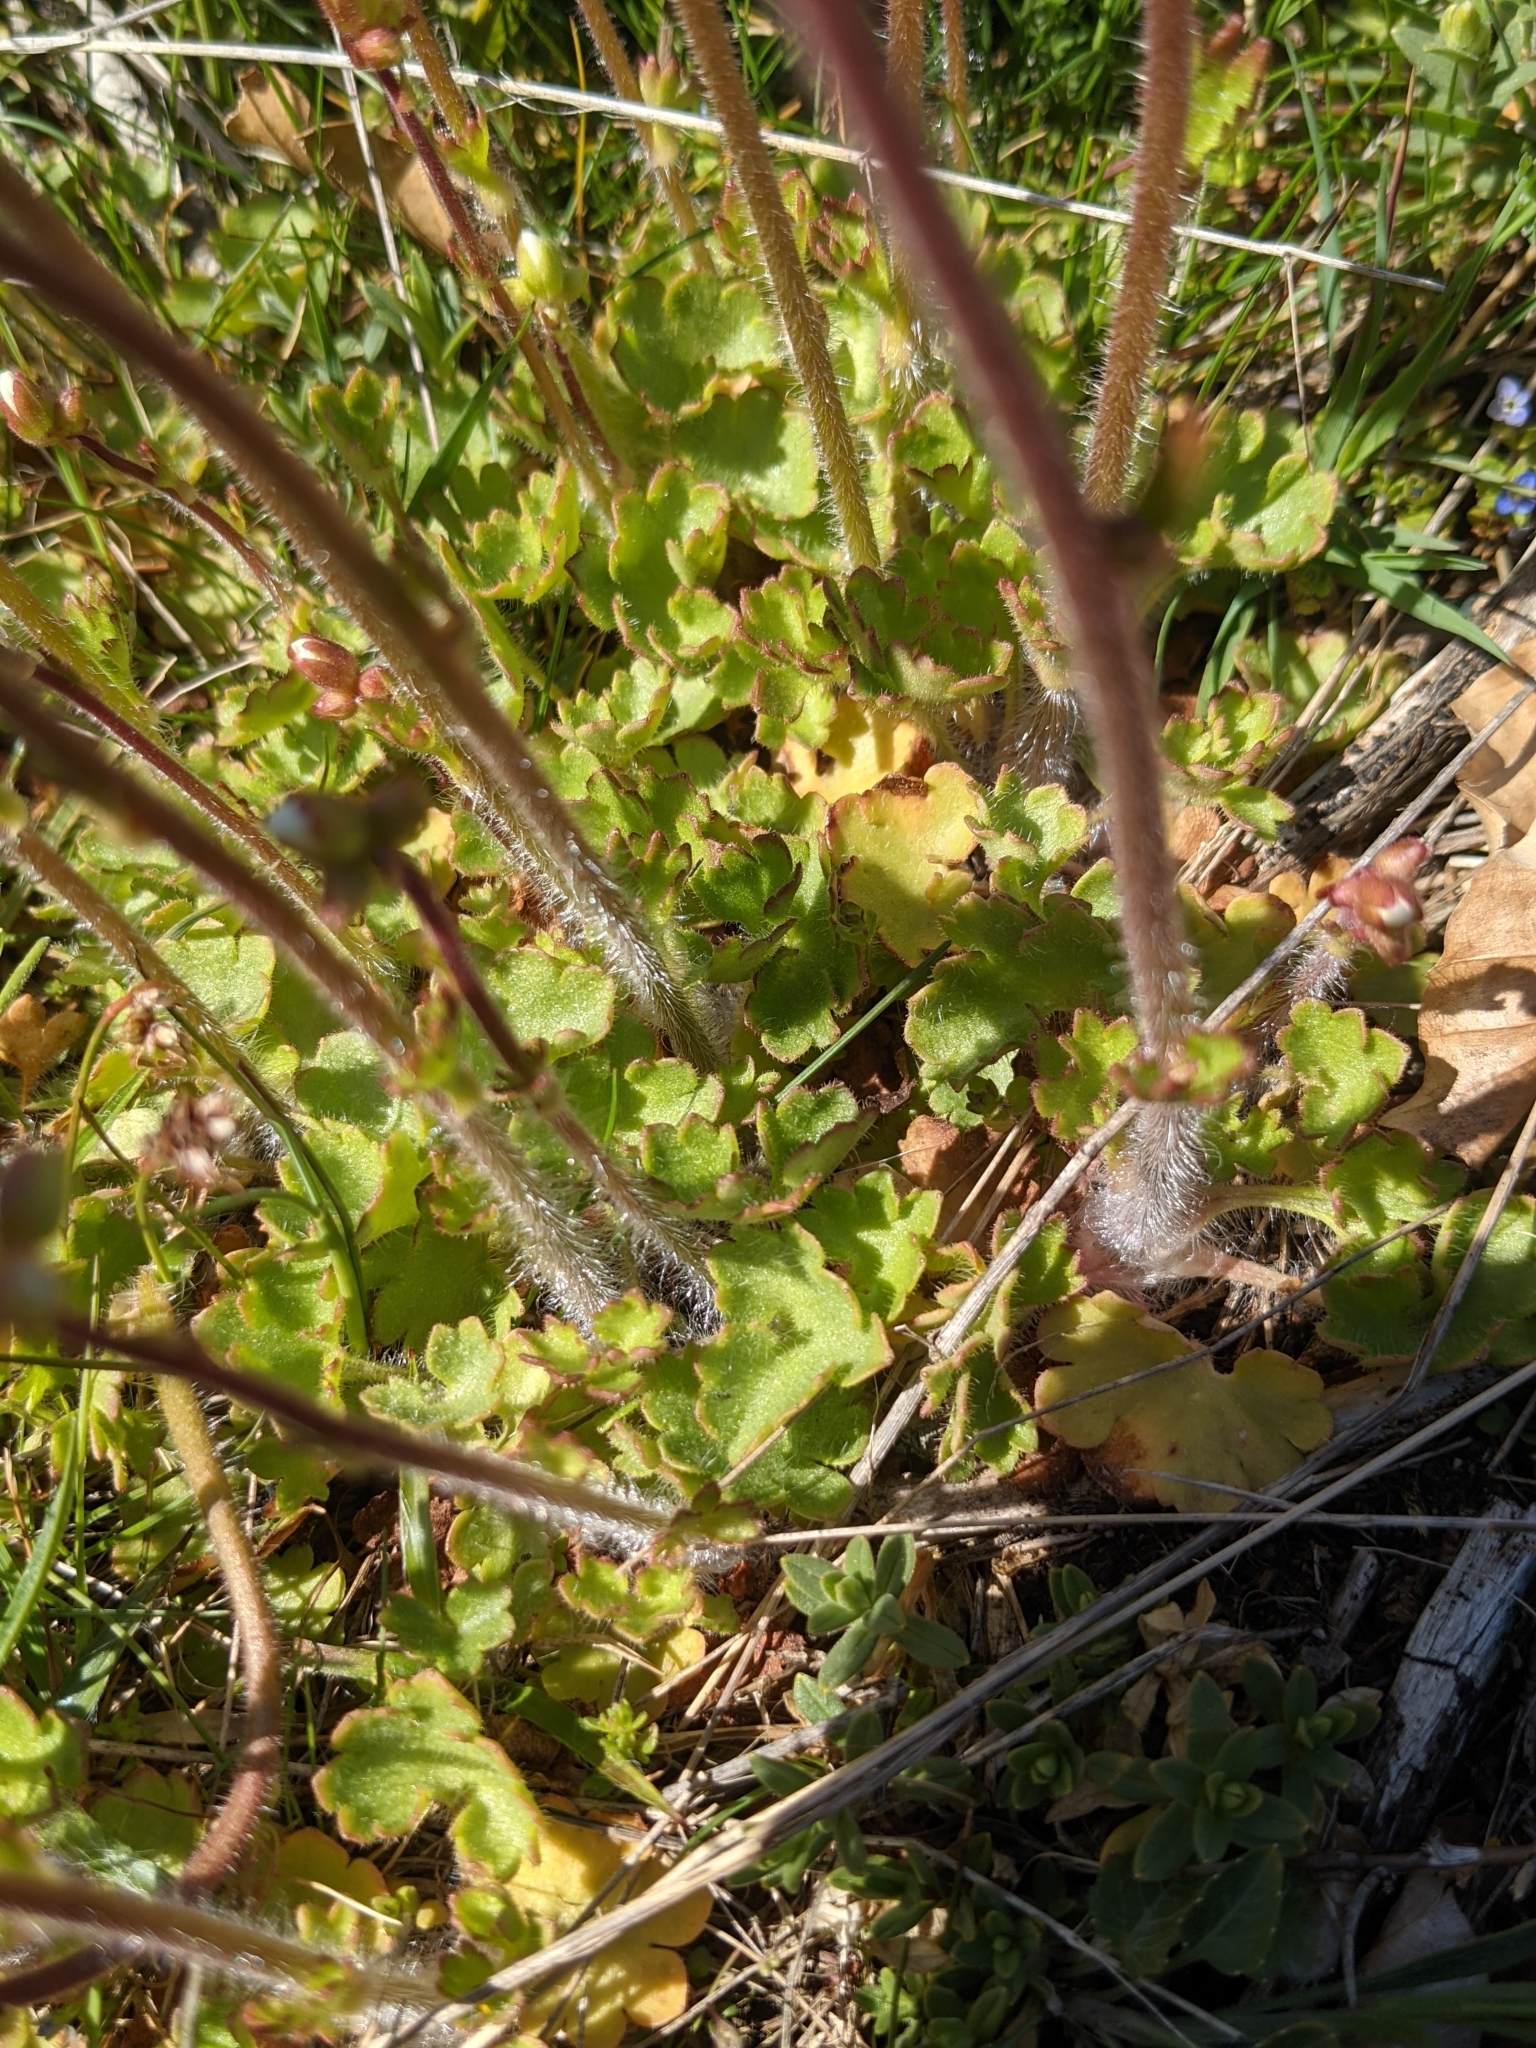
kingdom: Plantae
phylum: Tracheophyta
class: Magnoliopsida
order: Saxifragales
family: Saxifragaceae
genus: Saxifraga
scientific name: Saxifraga granulata
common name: Meadow saxifrage
